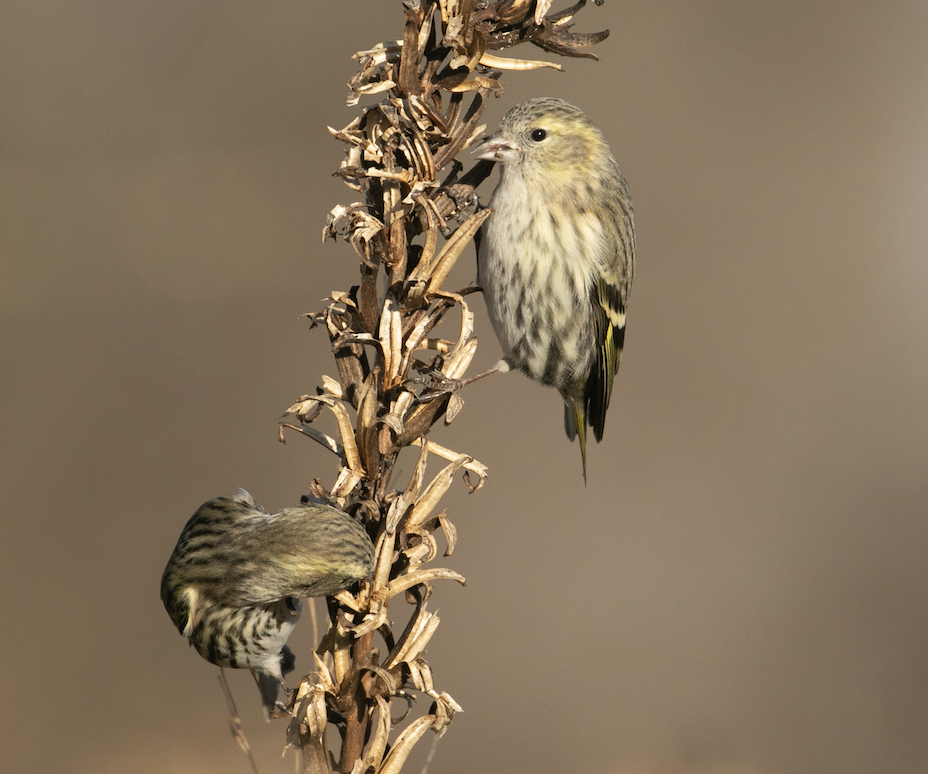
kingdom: Animalia
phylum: Chordata
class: Aves
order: Passeriformes
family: Fringillidae
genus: Spinus
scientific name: Spinus spinus
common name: Eurasian siskin
